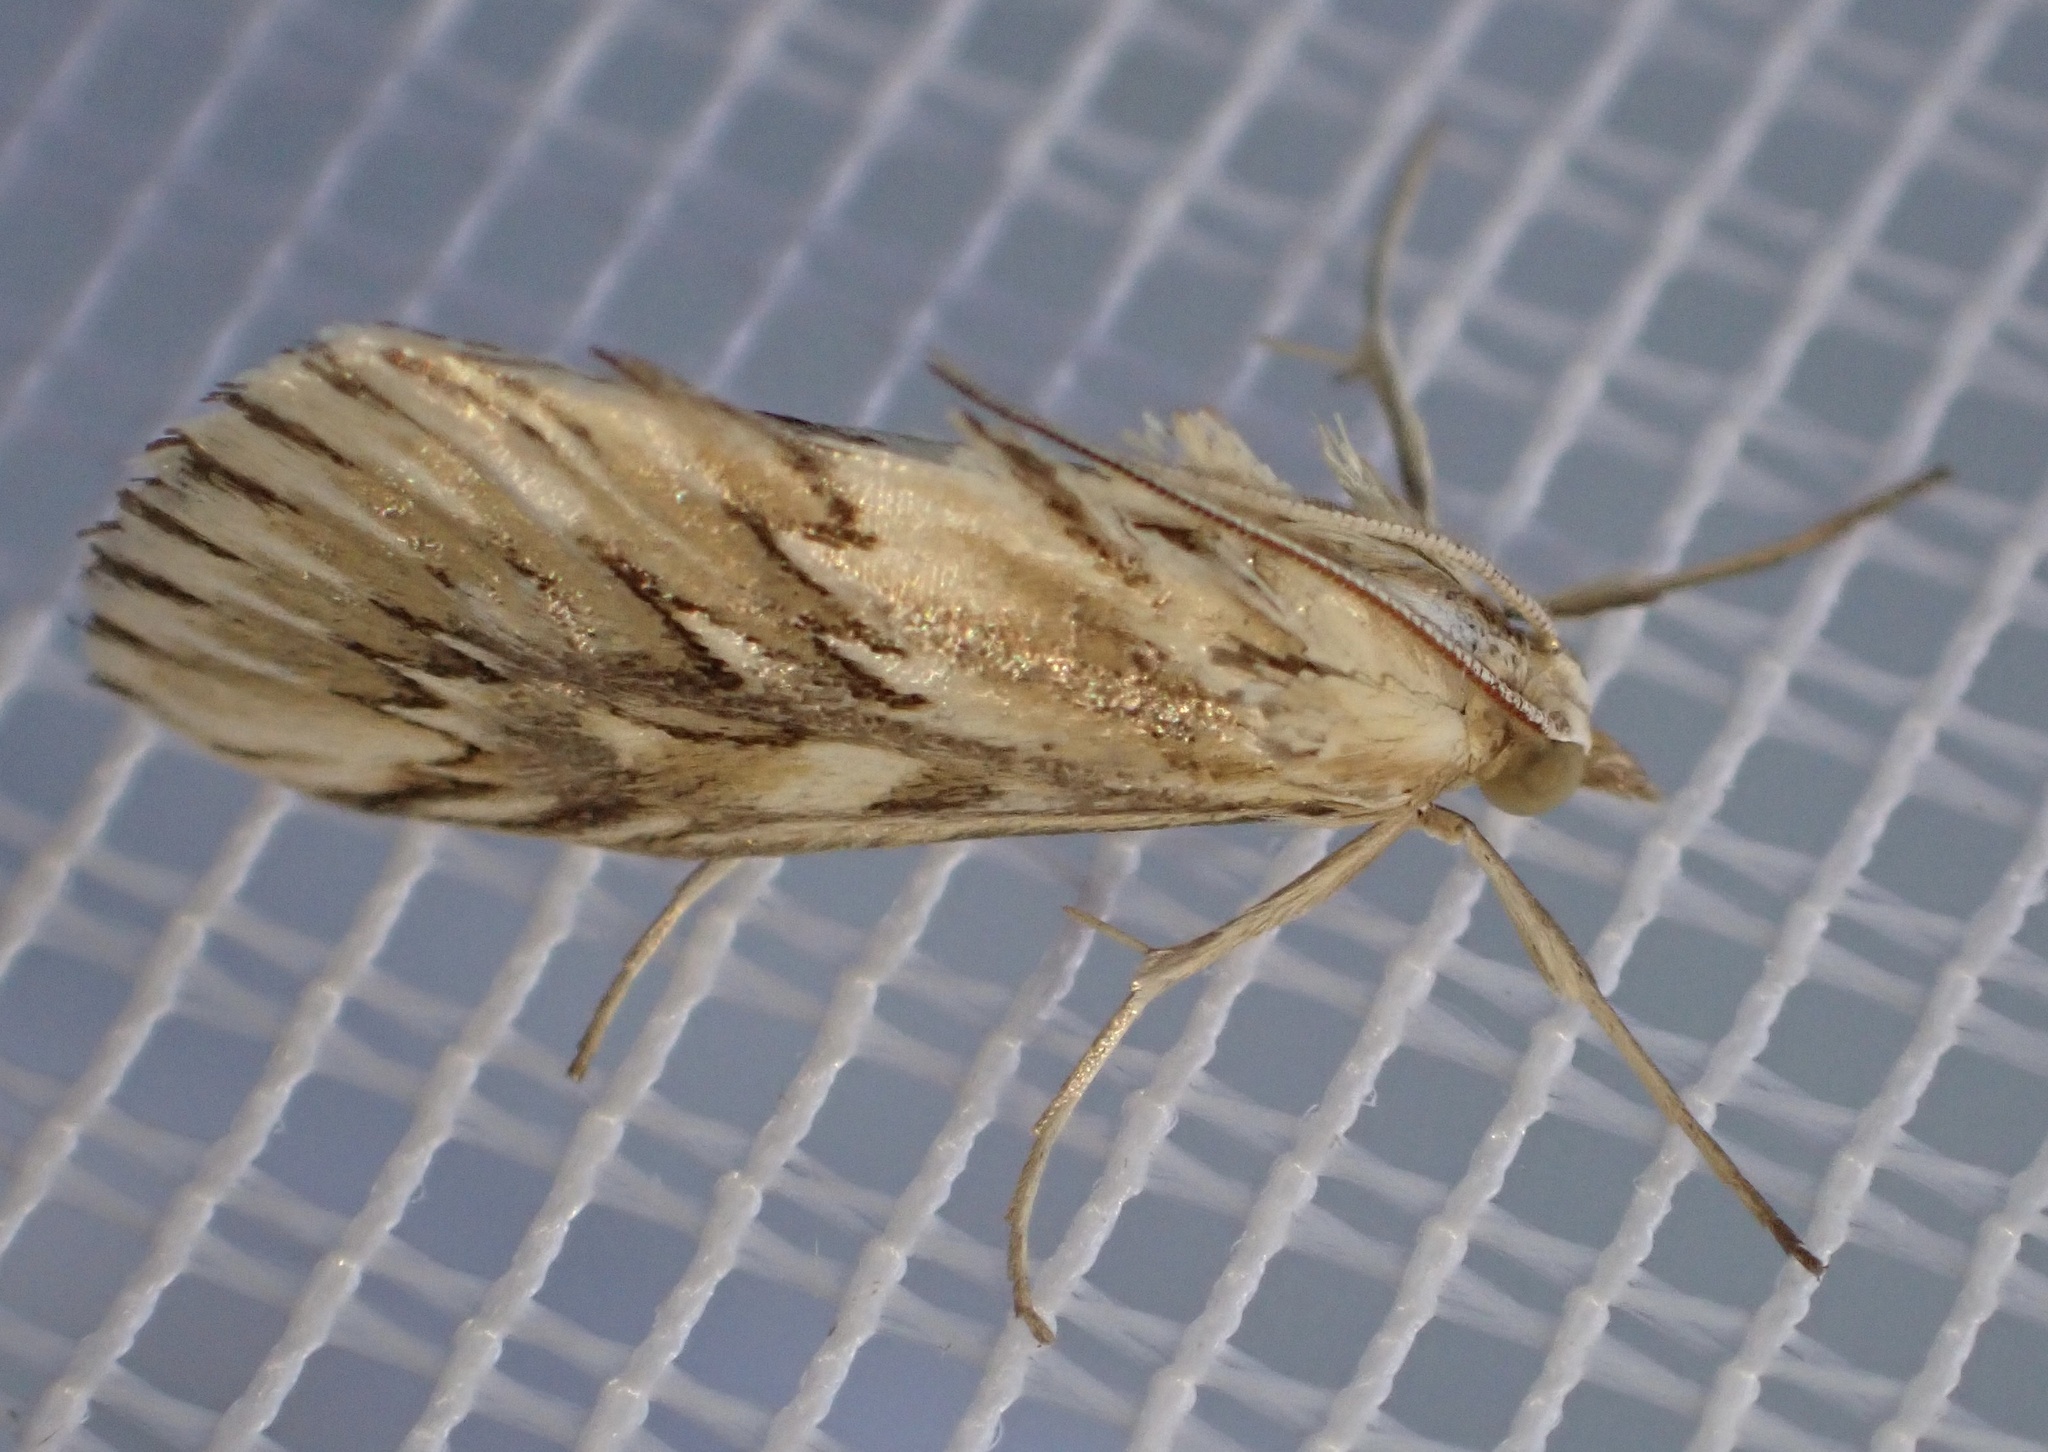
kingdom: Animalia
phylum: Arthropoda
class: Insecta
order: Lepidoptera
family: Crambidae
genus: Cynaeda
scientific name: Cynaeda dentalis
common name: Starry pearl
